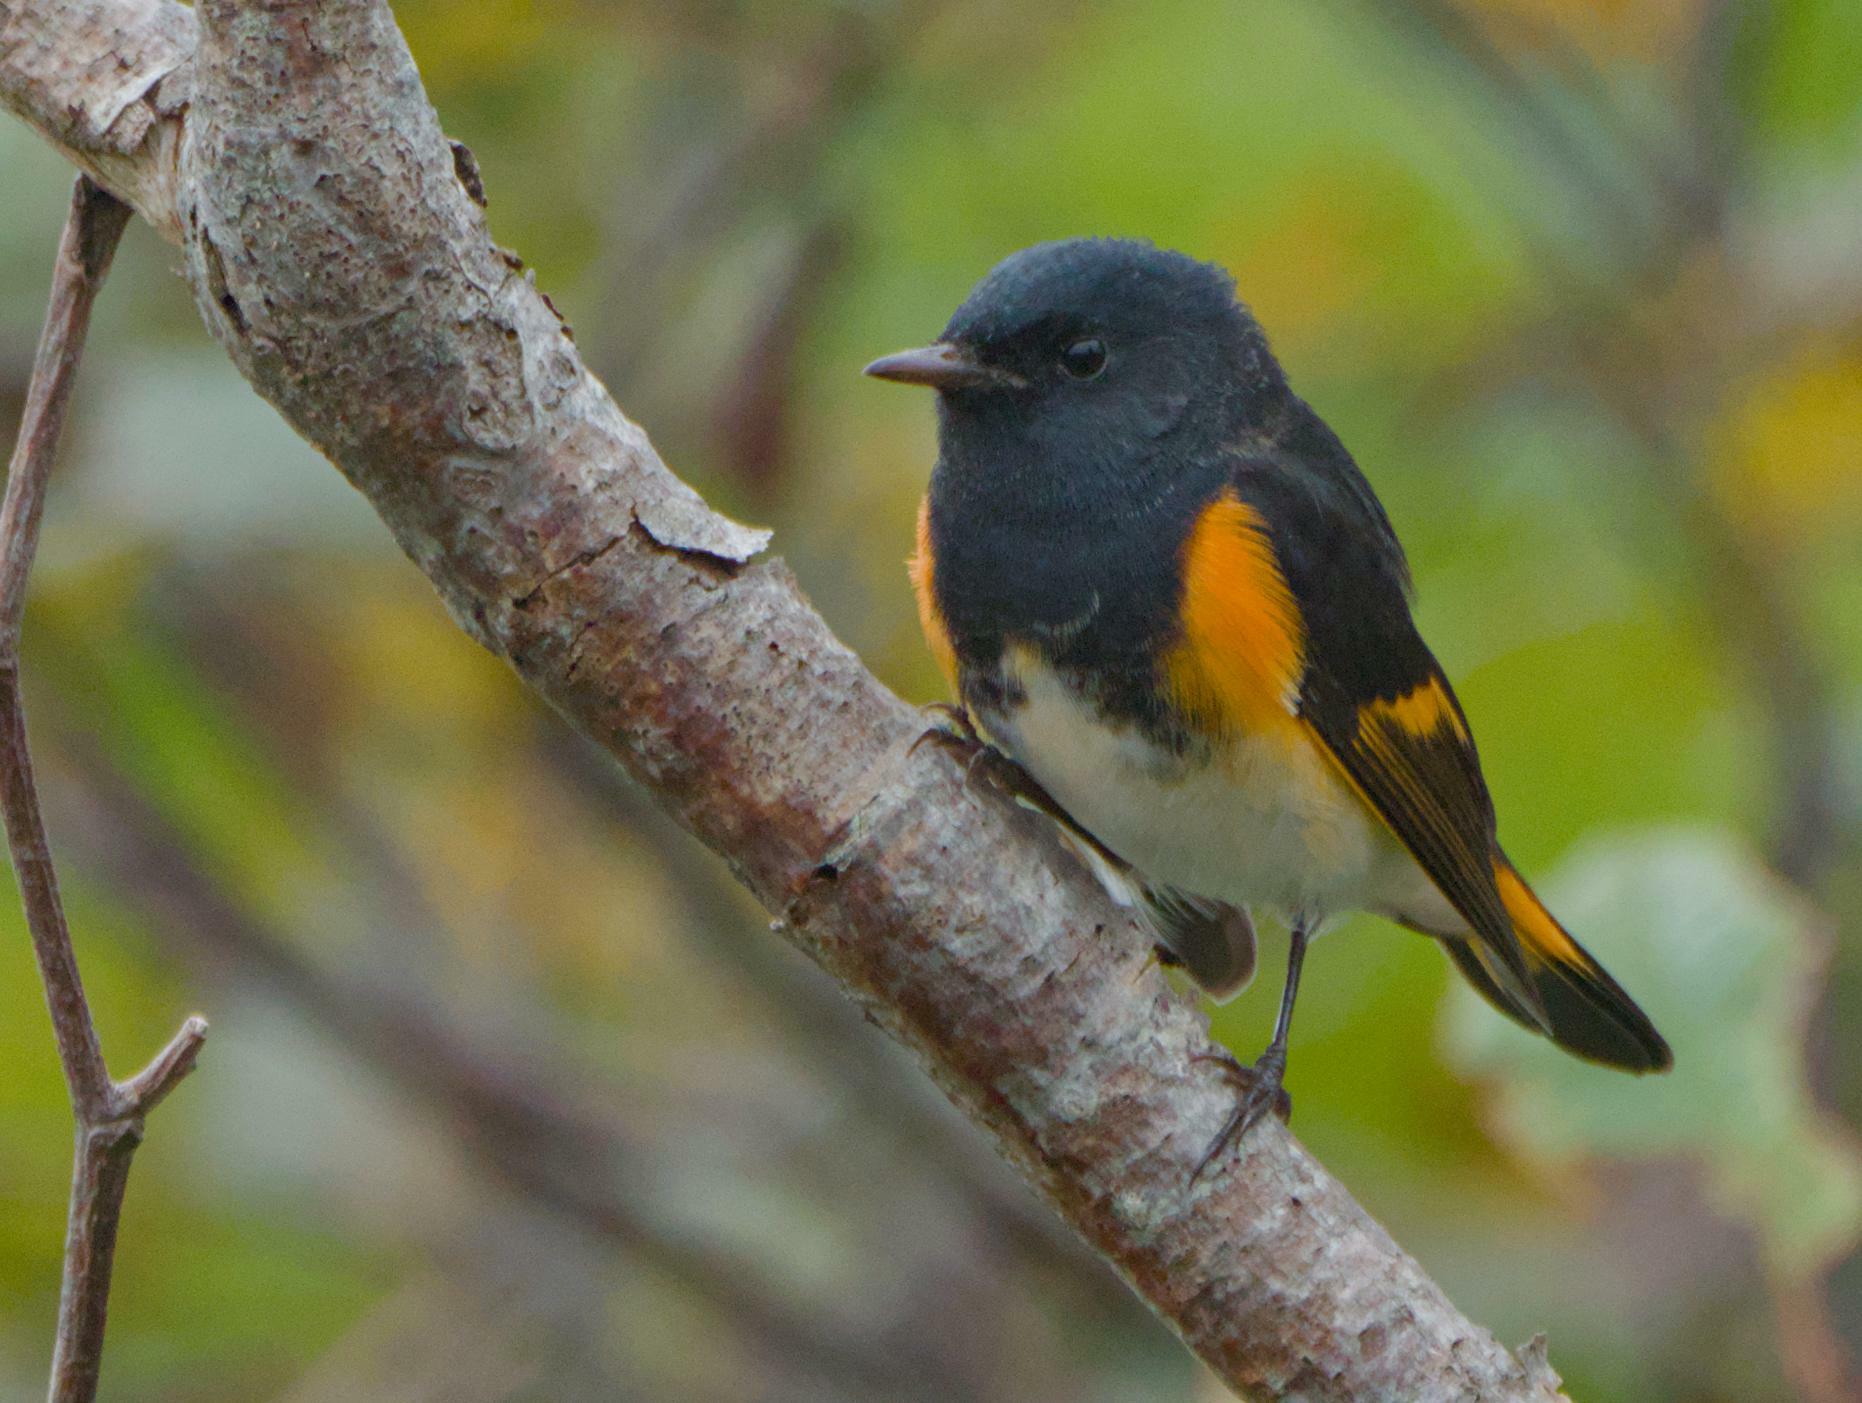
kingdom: Animalia
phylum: Chordata
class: Aves
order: Passeriformes
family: Parulidae
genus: Setophaga
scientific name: Setophaga ruticilla
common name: American redstart
